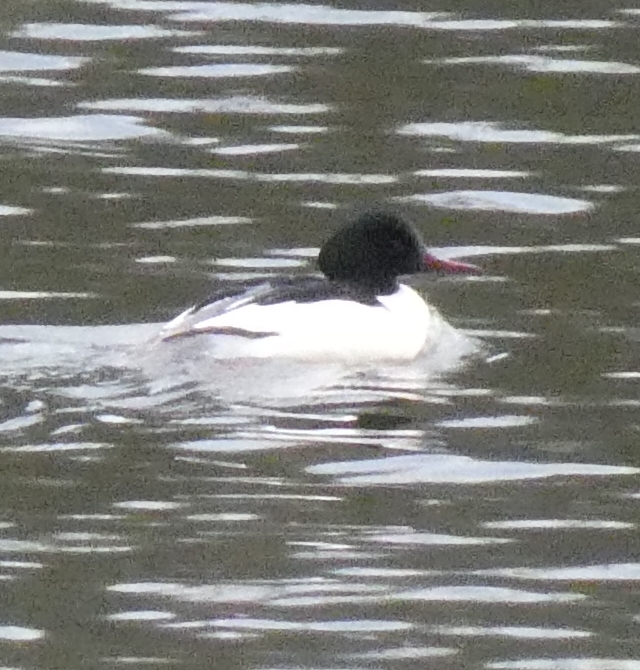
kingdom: Animalia
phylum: Chordata
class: Aves
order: Anseriformes
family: Anatidae
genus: Mergus
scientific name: Mergus merganser
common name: Common merganser
